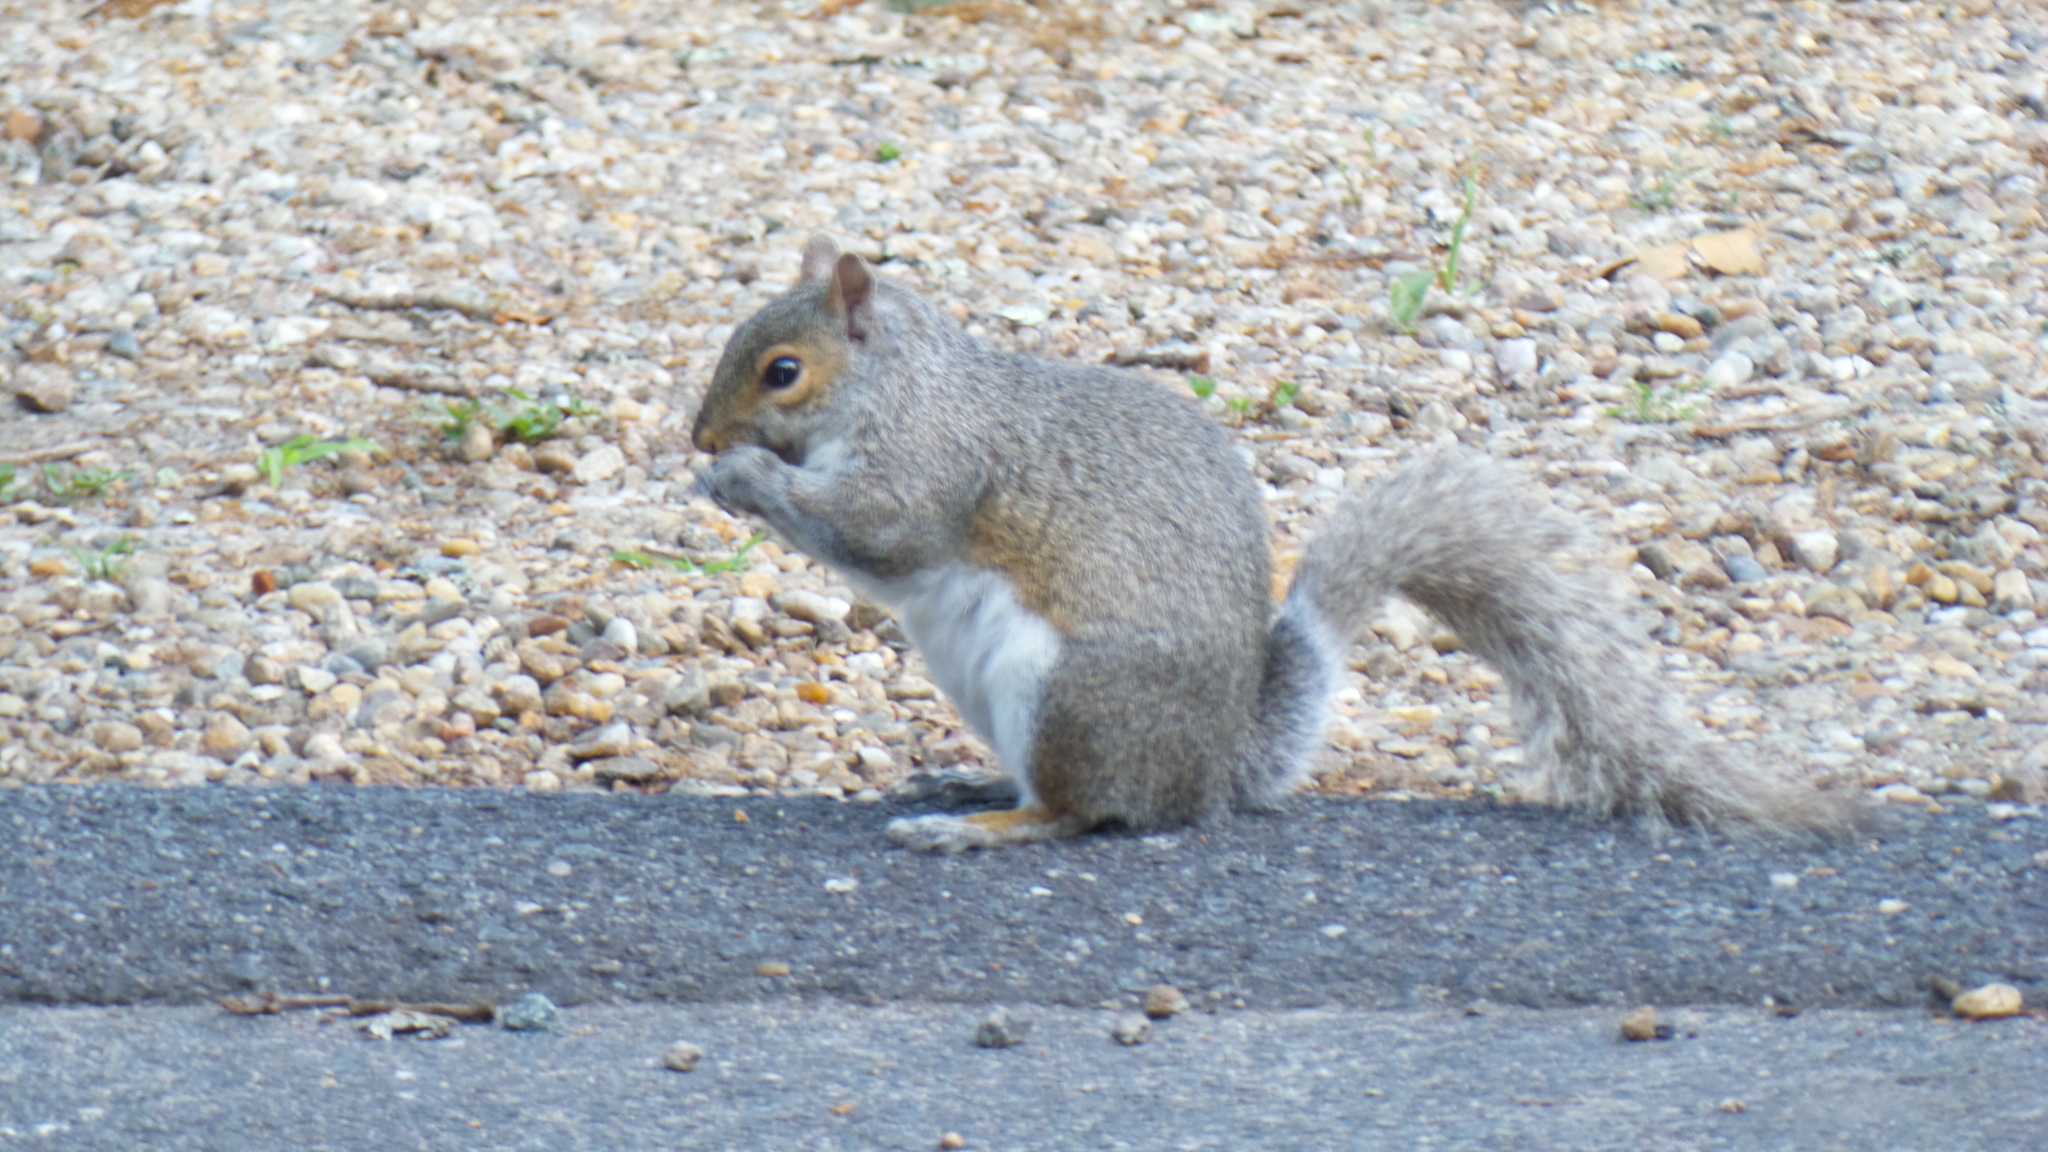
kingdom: Animalia
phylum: Chordata
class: Mammalia
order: Rodentia
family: Sciuridae
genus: Sciurus
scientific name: Sciurus carolinensis
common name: Eastern gray squirrel
